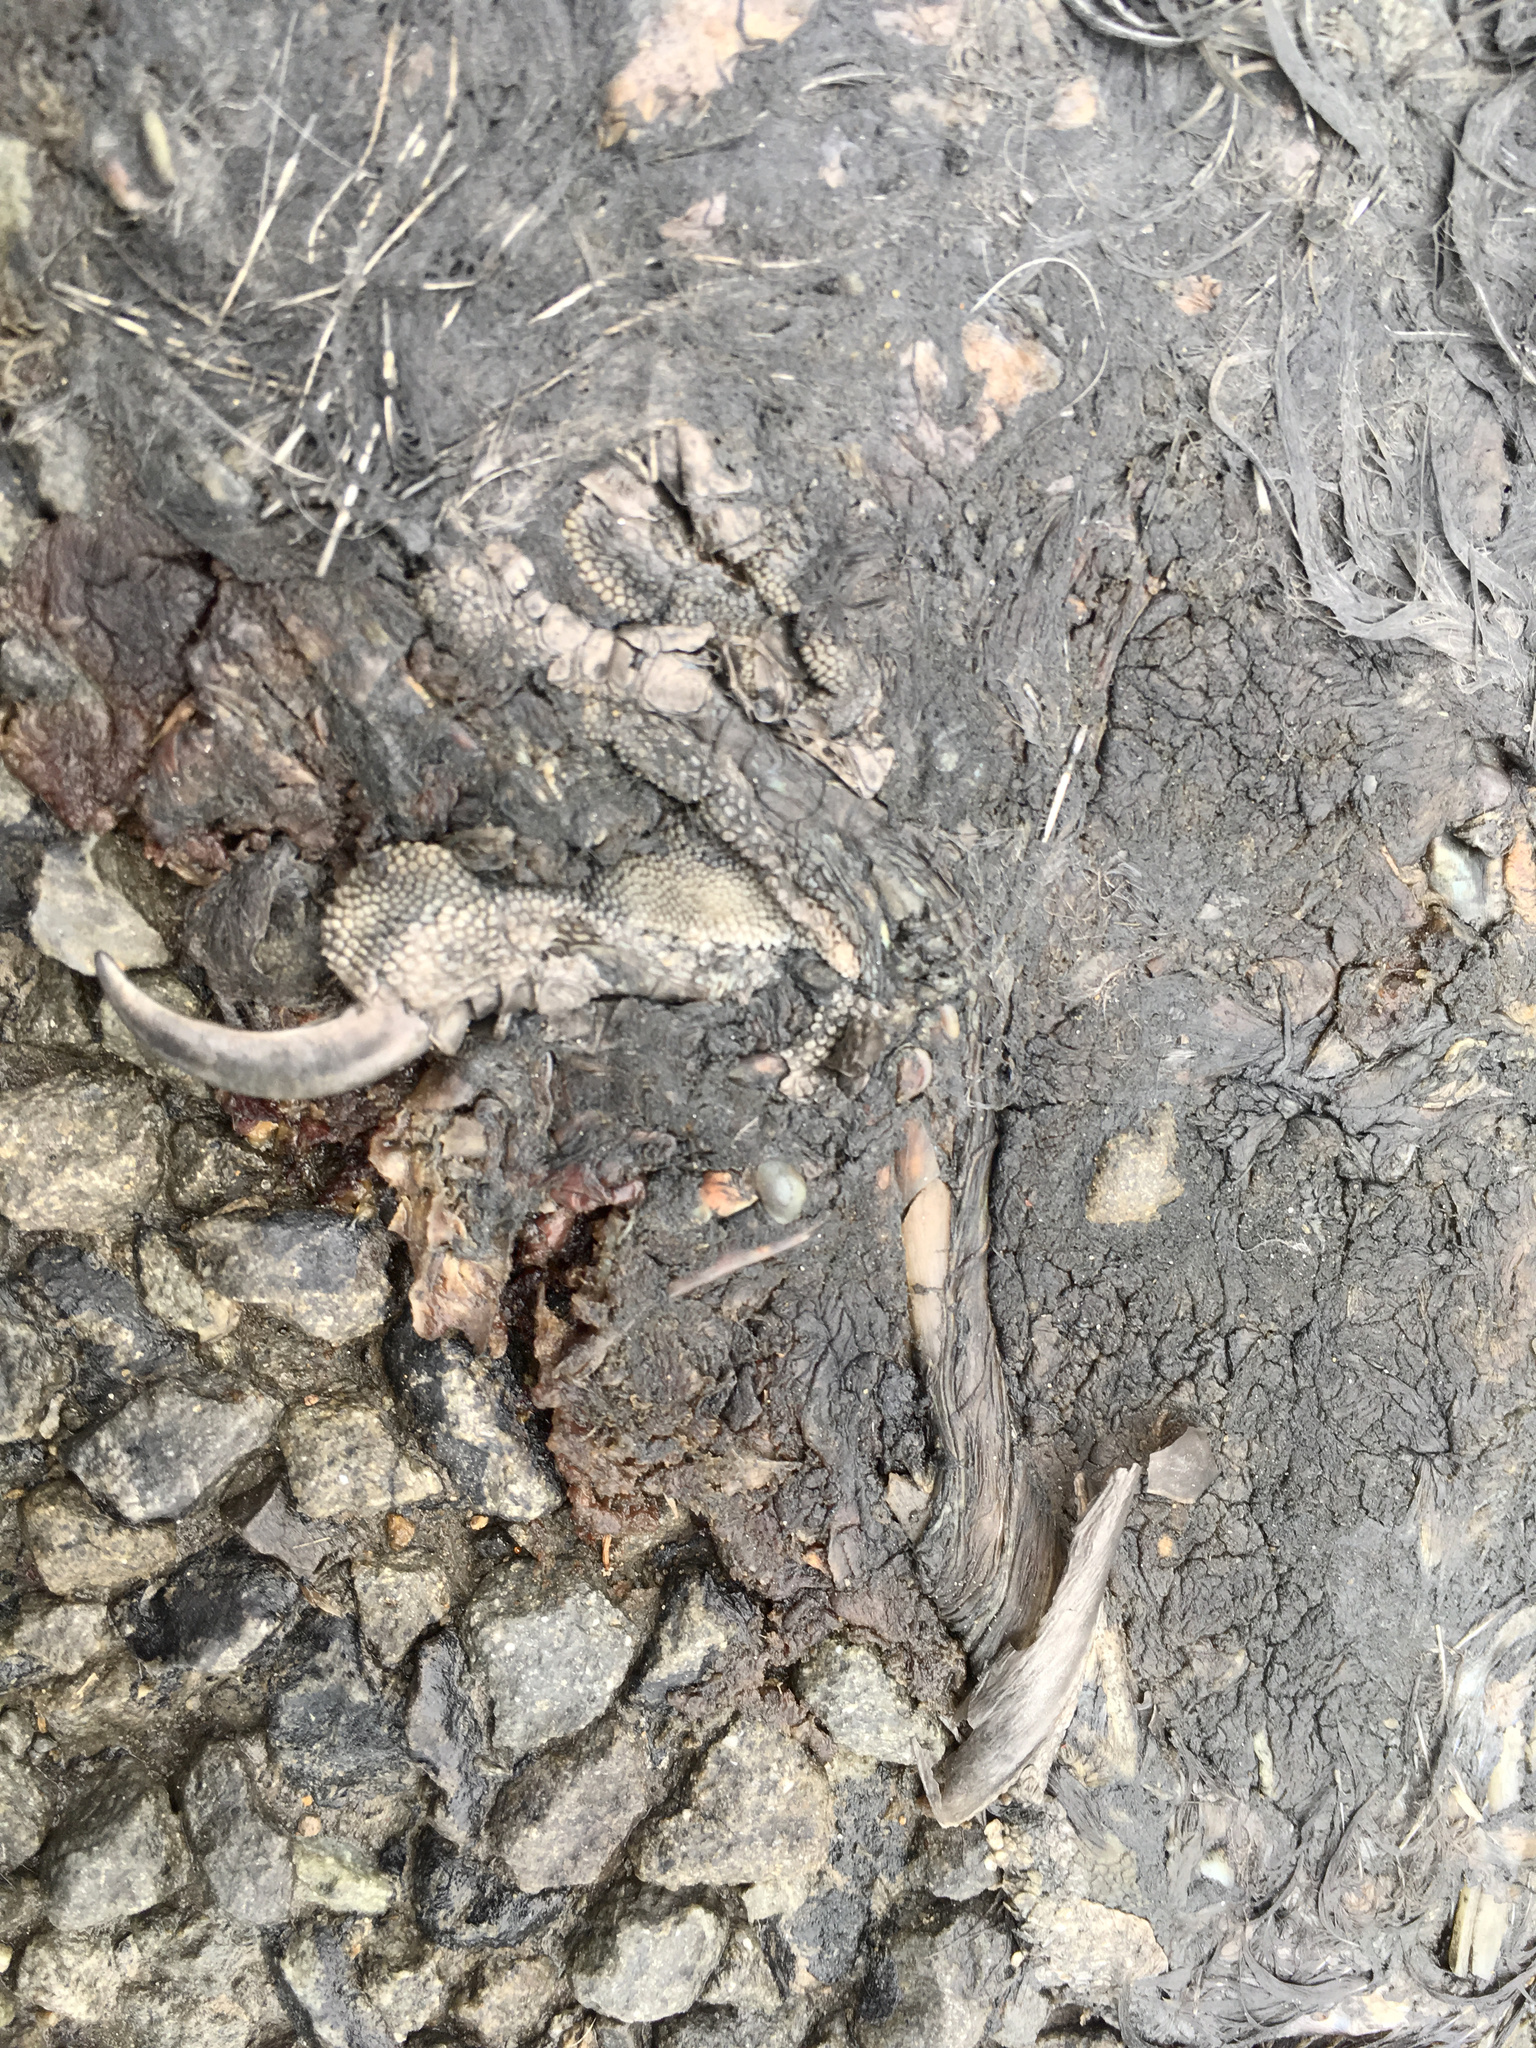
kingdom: Animalia
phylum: Chordata
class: Aves
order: Passeriformes
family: Cracticidae
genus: Gymnorhina
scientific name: Gymnorhina tibicen
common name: Australian magpie
